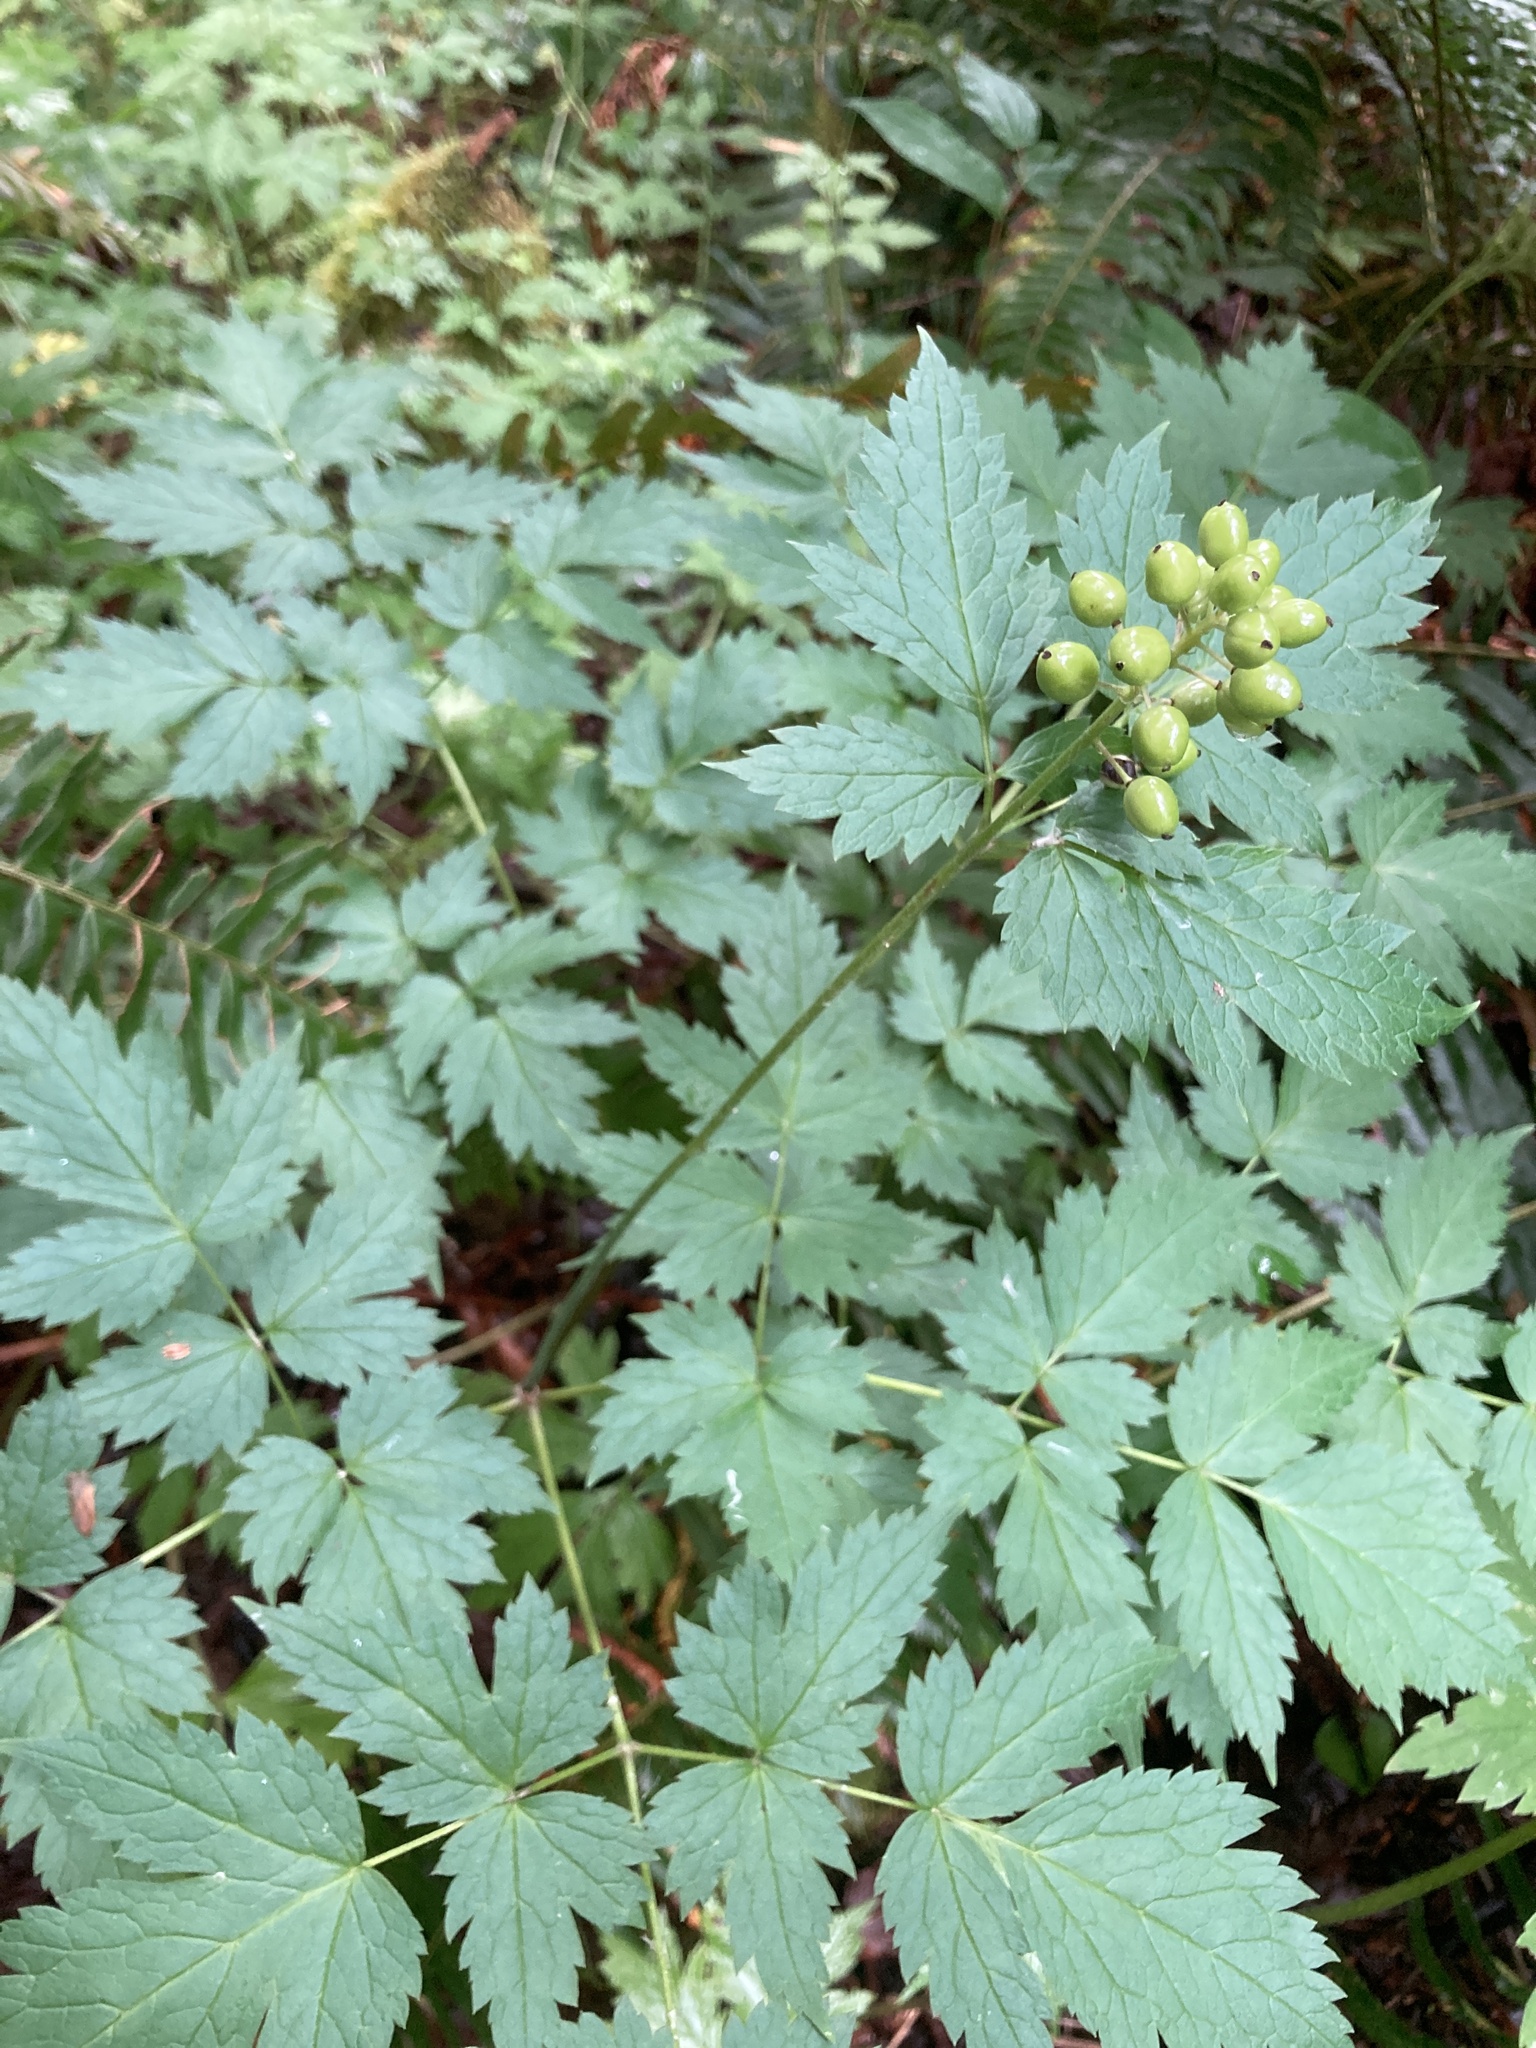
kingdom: Plantae
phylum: Tracheophyta
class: Magnoliopsida
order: Ranunculales
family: Ranunculaceae
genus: Actaea
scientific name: Actaea rubra
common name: Red baneberry
